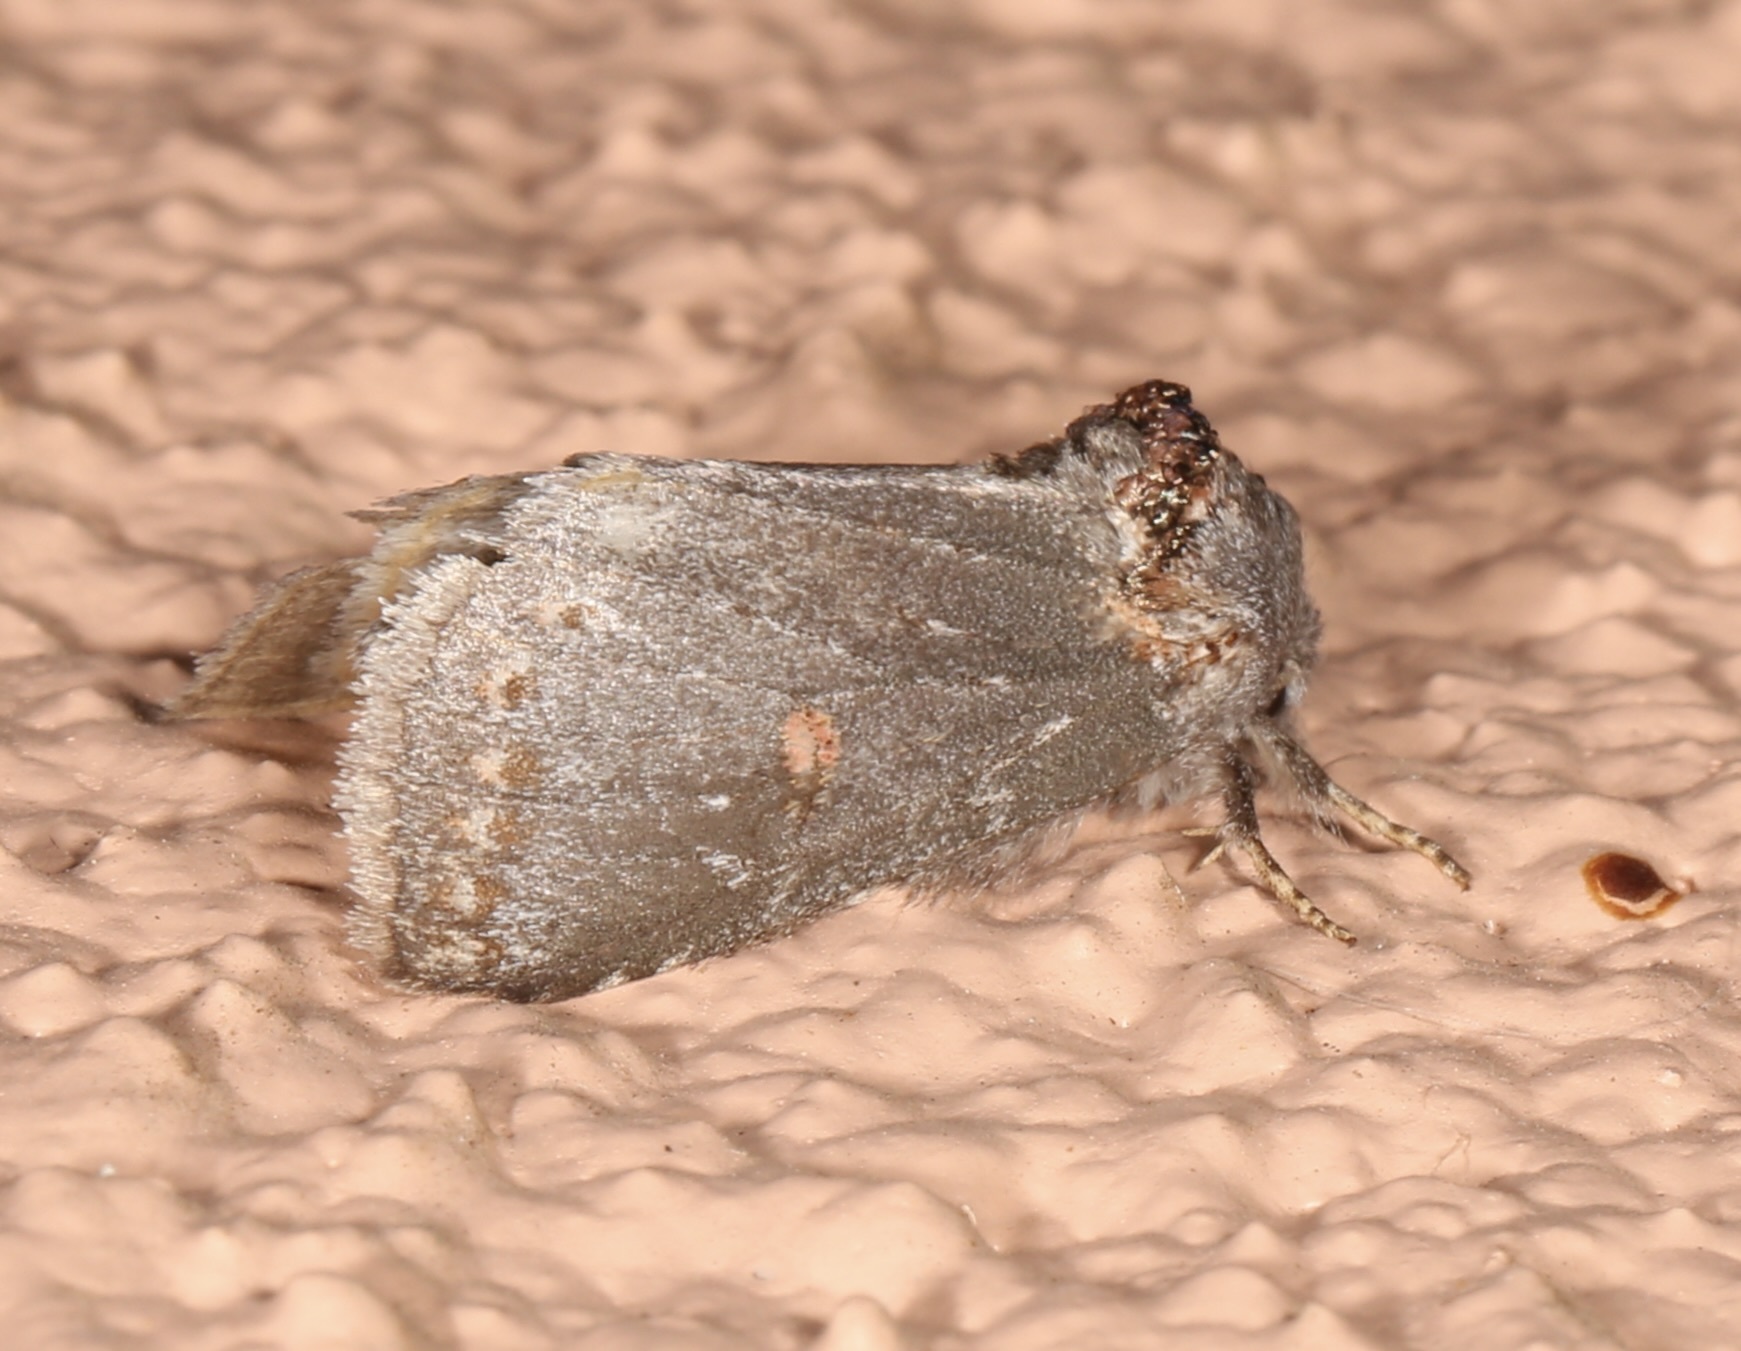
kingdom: Animalia
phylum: Arthropoda
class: Insecta
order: Lepidoptera
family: Notodontidae
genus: Theroa
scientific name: Theroa zethus
